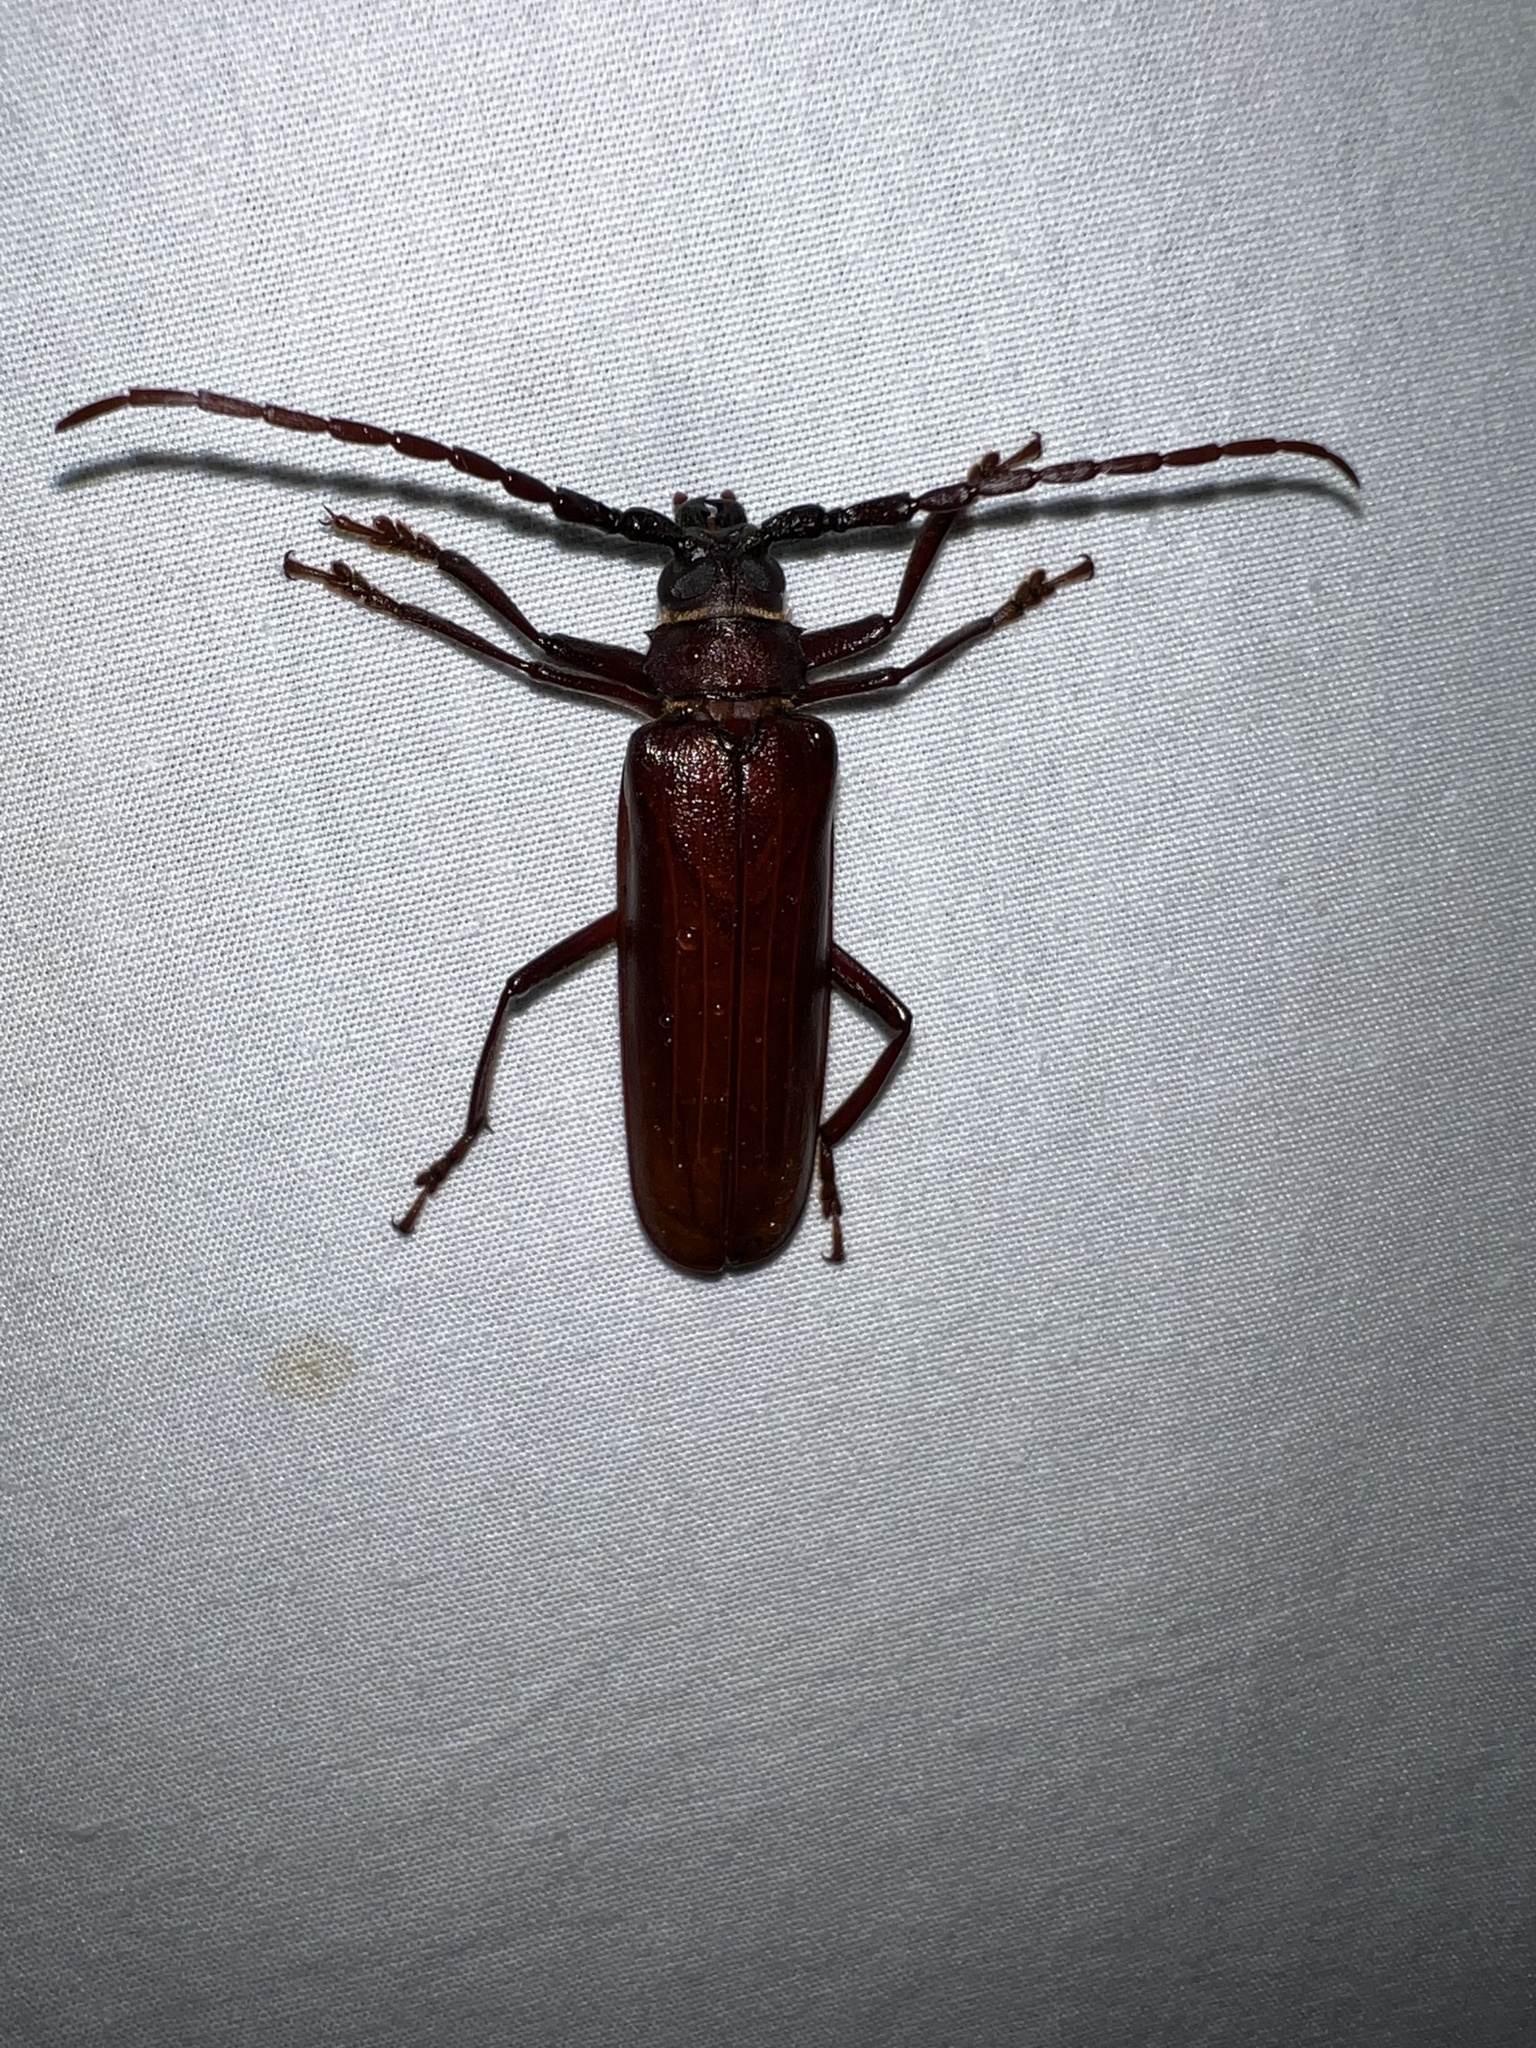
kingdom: Animalia
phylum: Arthropoda
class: Insecta
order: Coleoptera
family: Cerambycidae
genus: Orthosoma
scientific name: Orthosoma brunneum
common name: Brown prionid beetle
